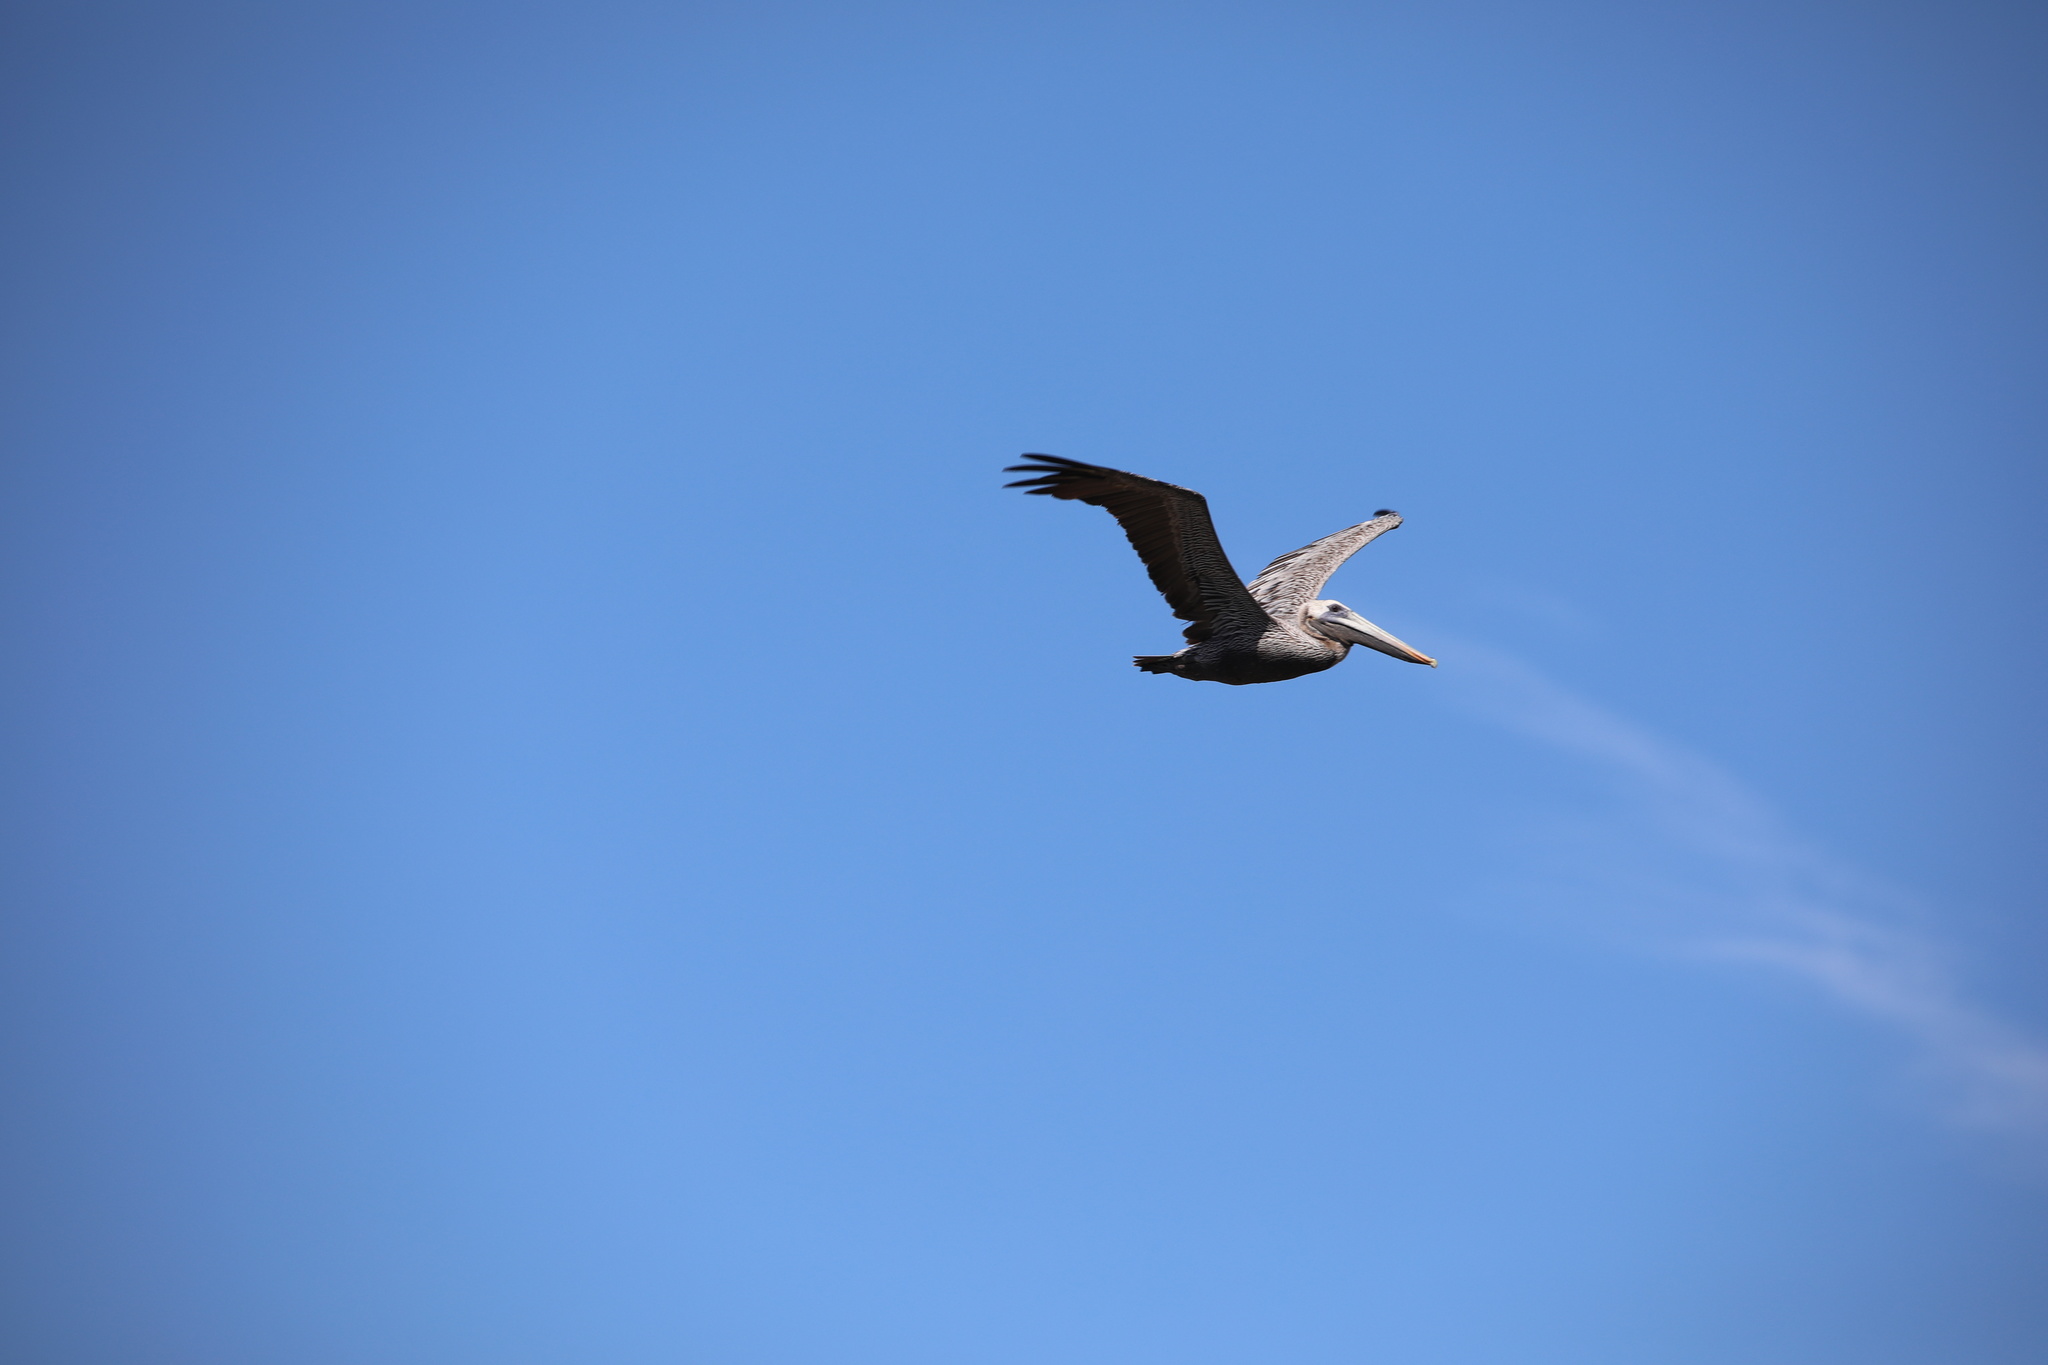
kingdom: Animalia
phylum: Chordata
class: Aves
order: Pelecaniformes
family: Pelecanidae
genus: Pelecanus
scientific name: Pelecanus occidentalis
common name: Brown pelican
